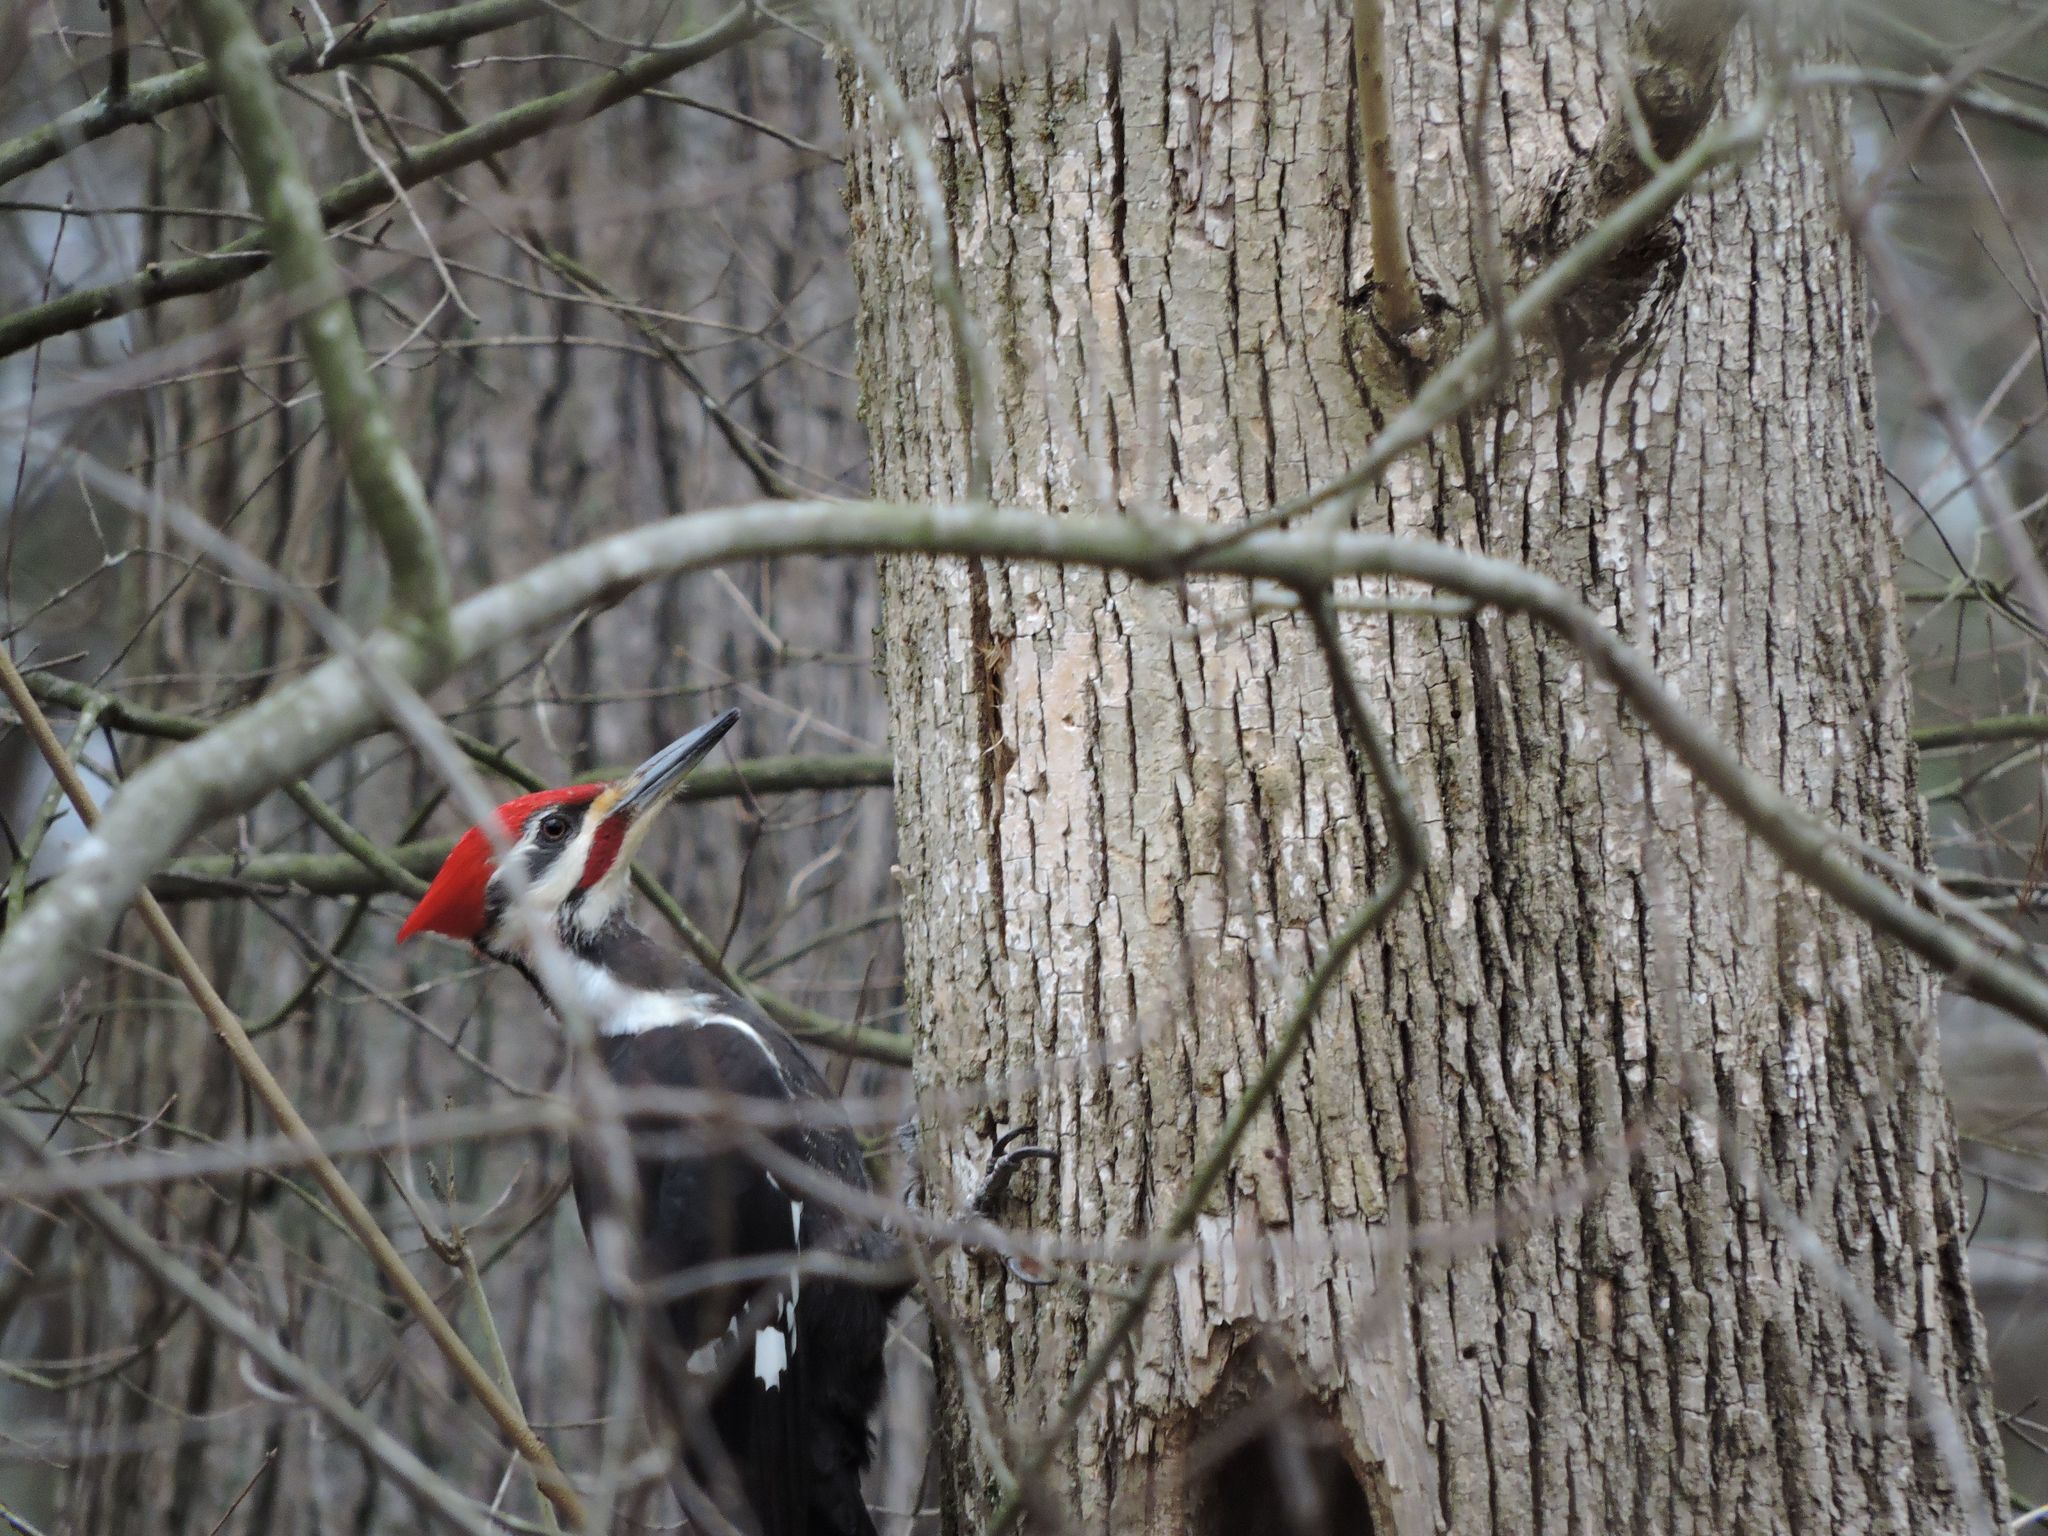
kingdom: Animalia
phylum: Chordata
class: Aves
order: Piciformes
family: Picidae
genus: Dryocopus
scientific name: Dryocopus pileatus
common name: Pileated woodpecker
